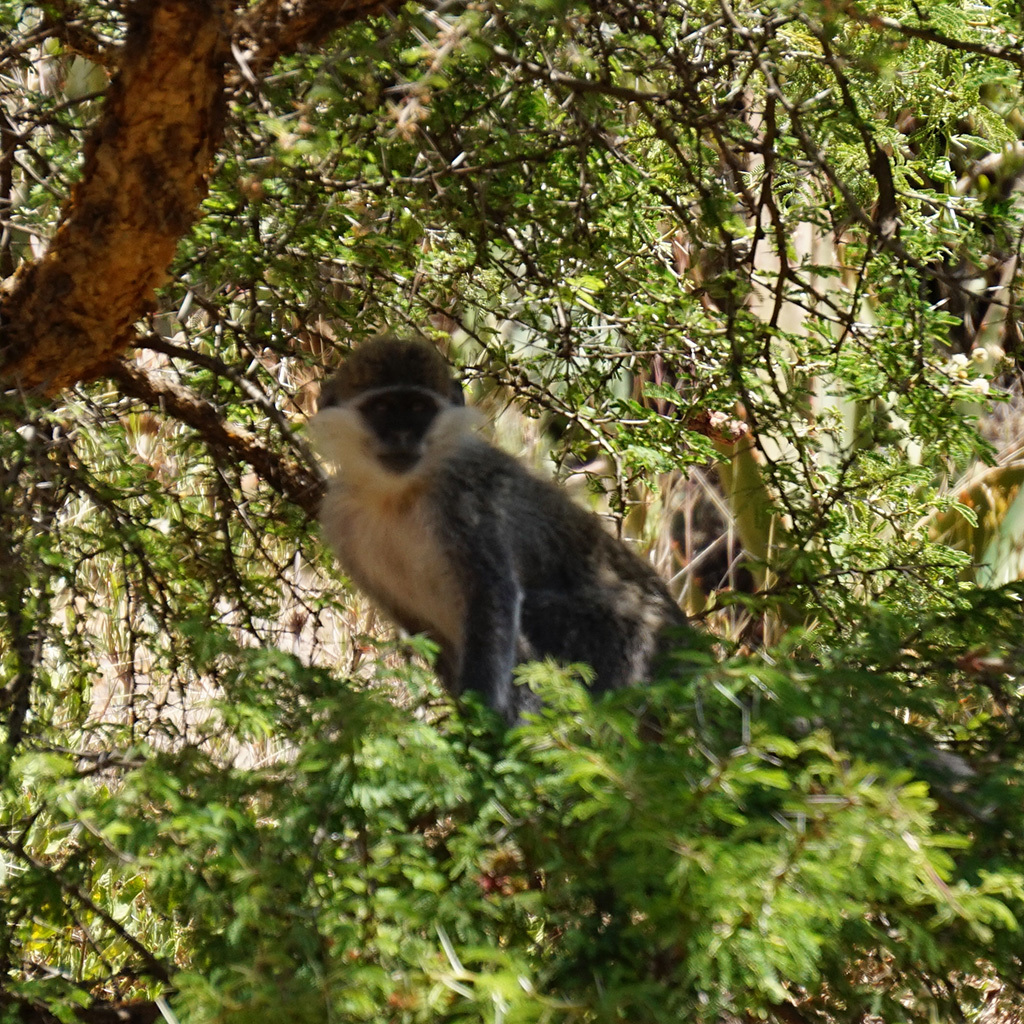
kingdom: Animalia
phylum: Chordata
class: Mammalia
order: Primates
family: Cercopithecidae
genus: Chlorocebus
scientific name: Chlorocebus aethiops
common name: Grivet
